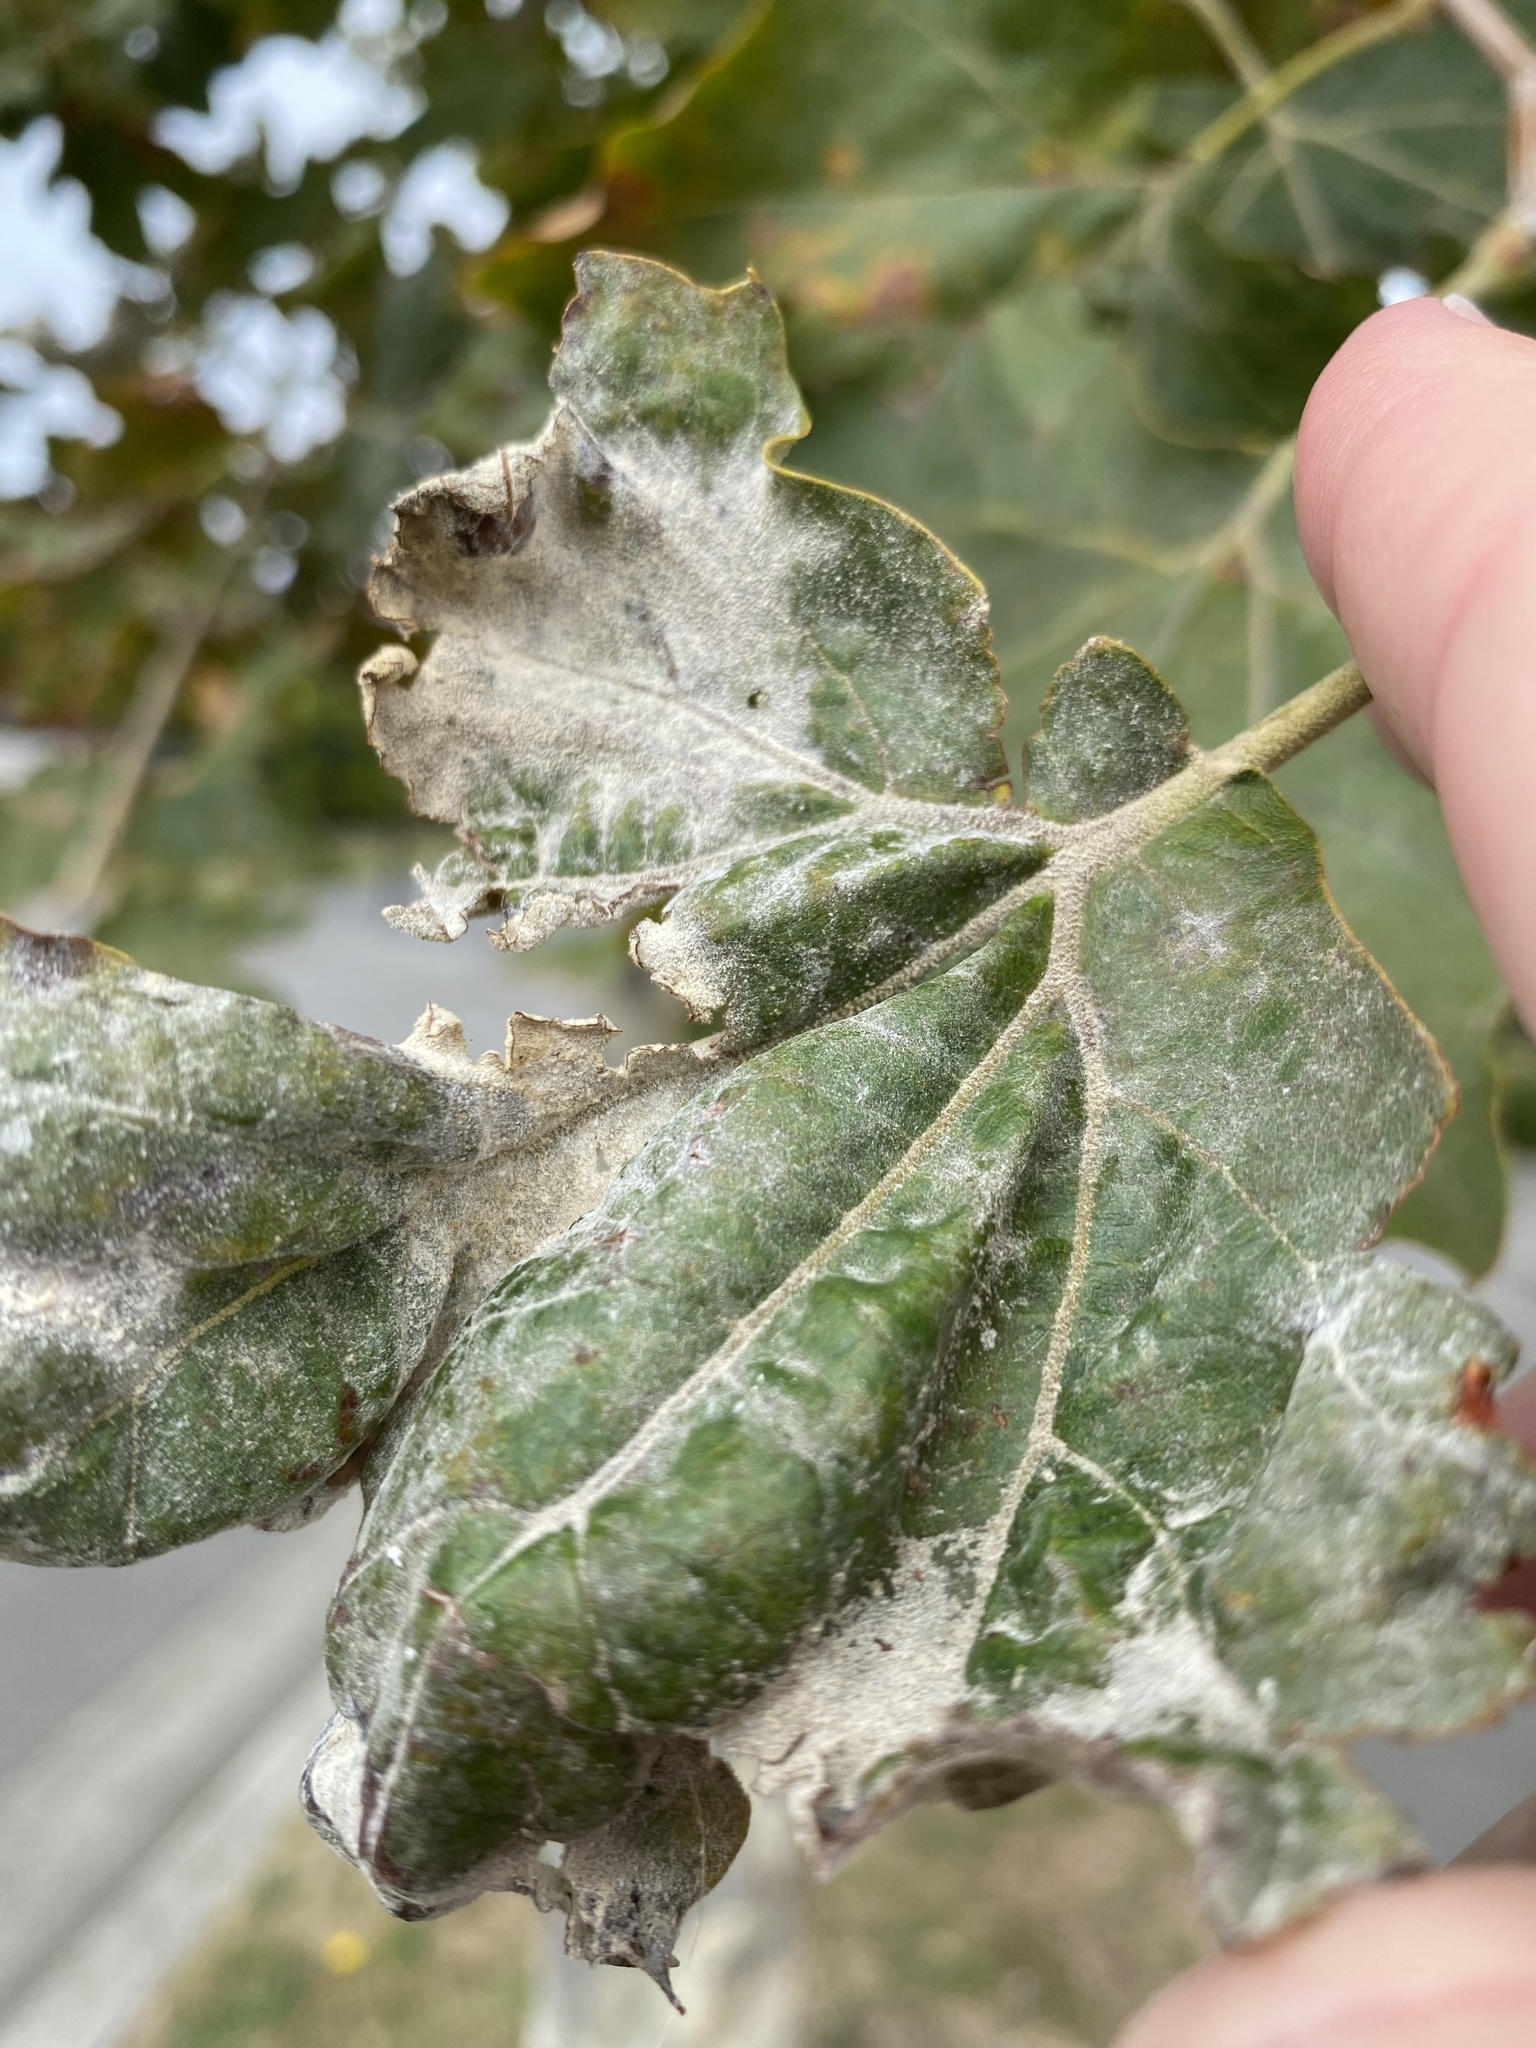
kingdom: Fungi
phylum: Ascomycota
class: Leotiomycetes
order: Helotiales
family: Erysiphaceae
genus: Erysiphe
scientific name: Erysiphe platani
